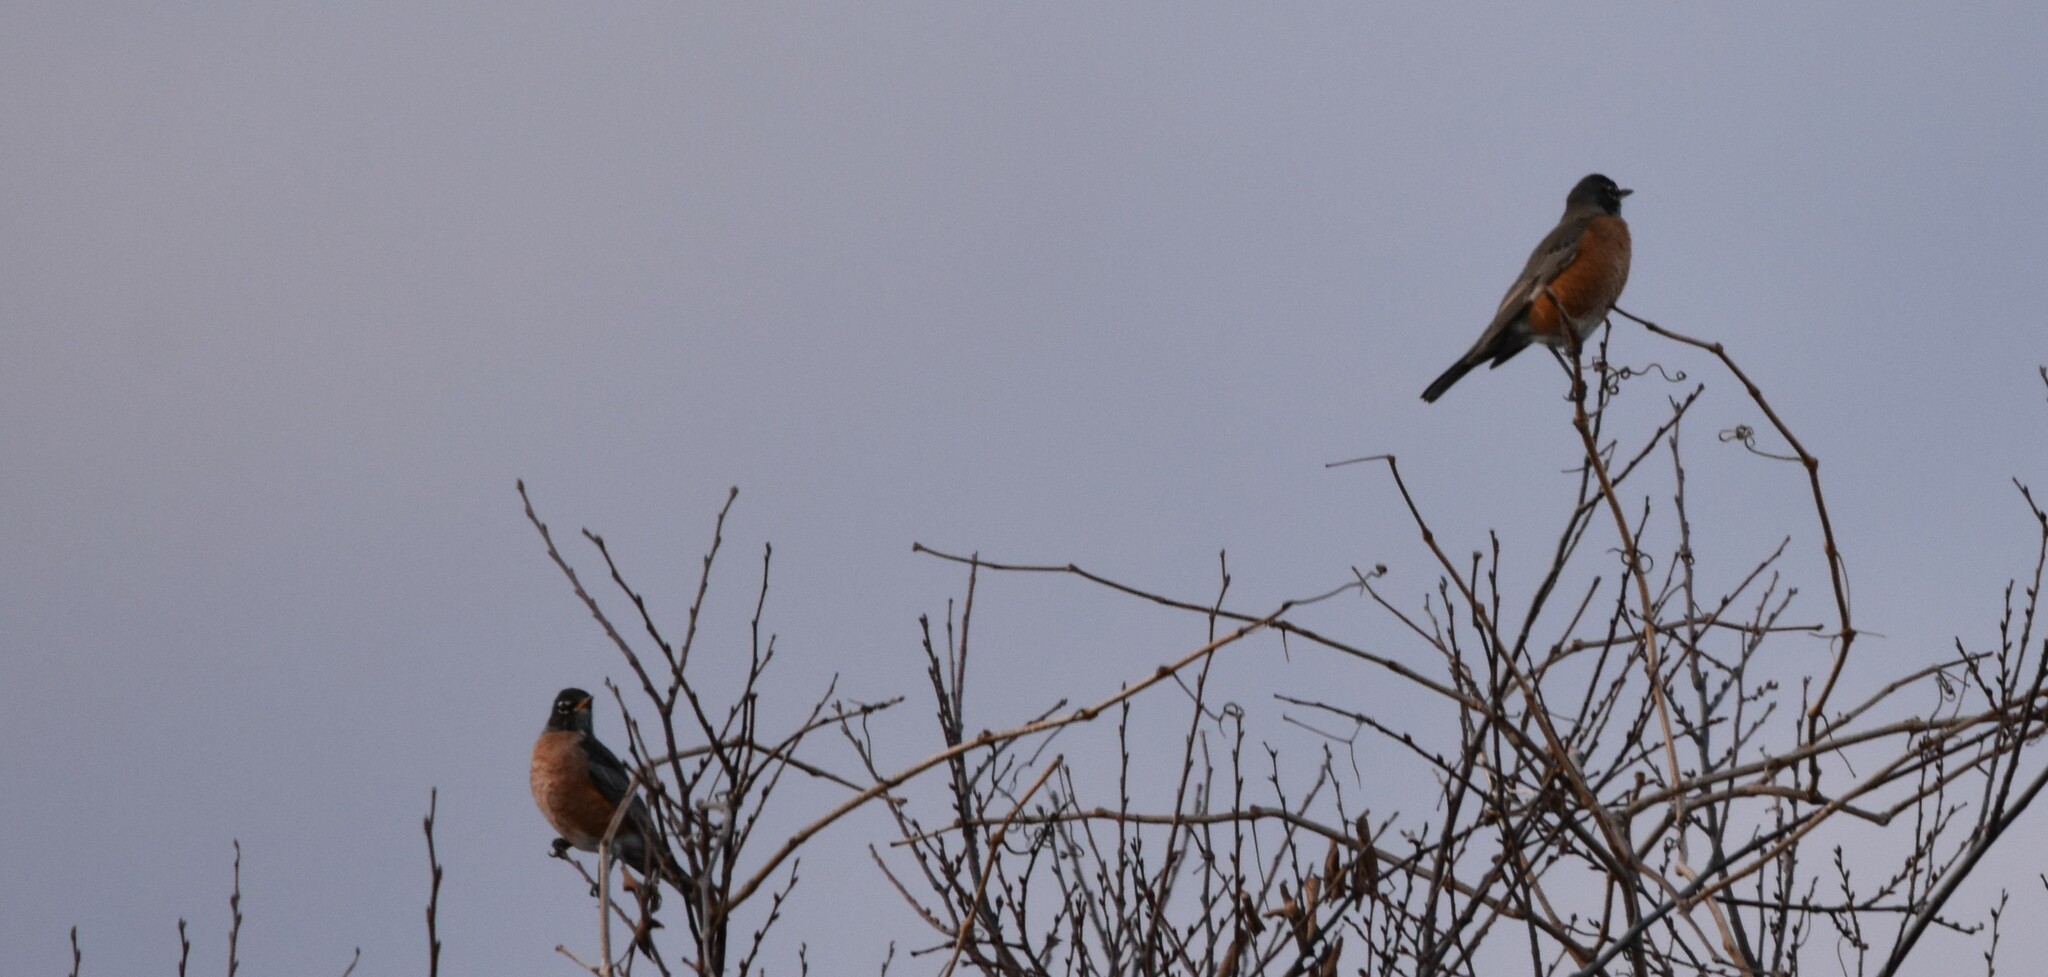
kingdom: Animalia
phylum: Chordata
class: Aves
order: Passeriformes
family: Turdidae
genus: Turdus
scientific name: Turdus migratorius
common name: American robin
